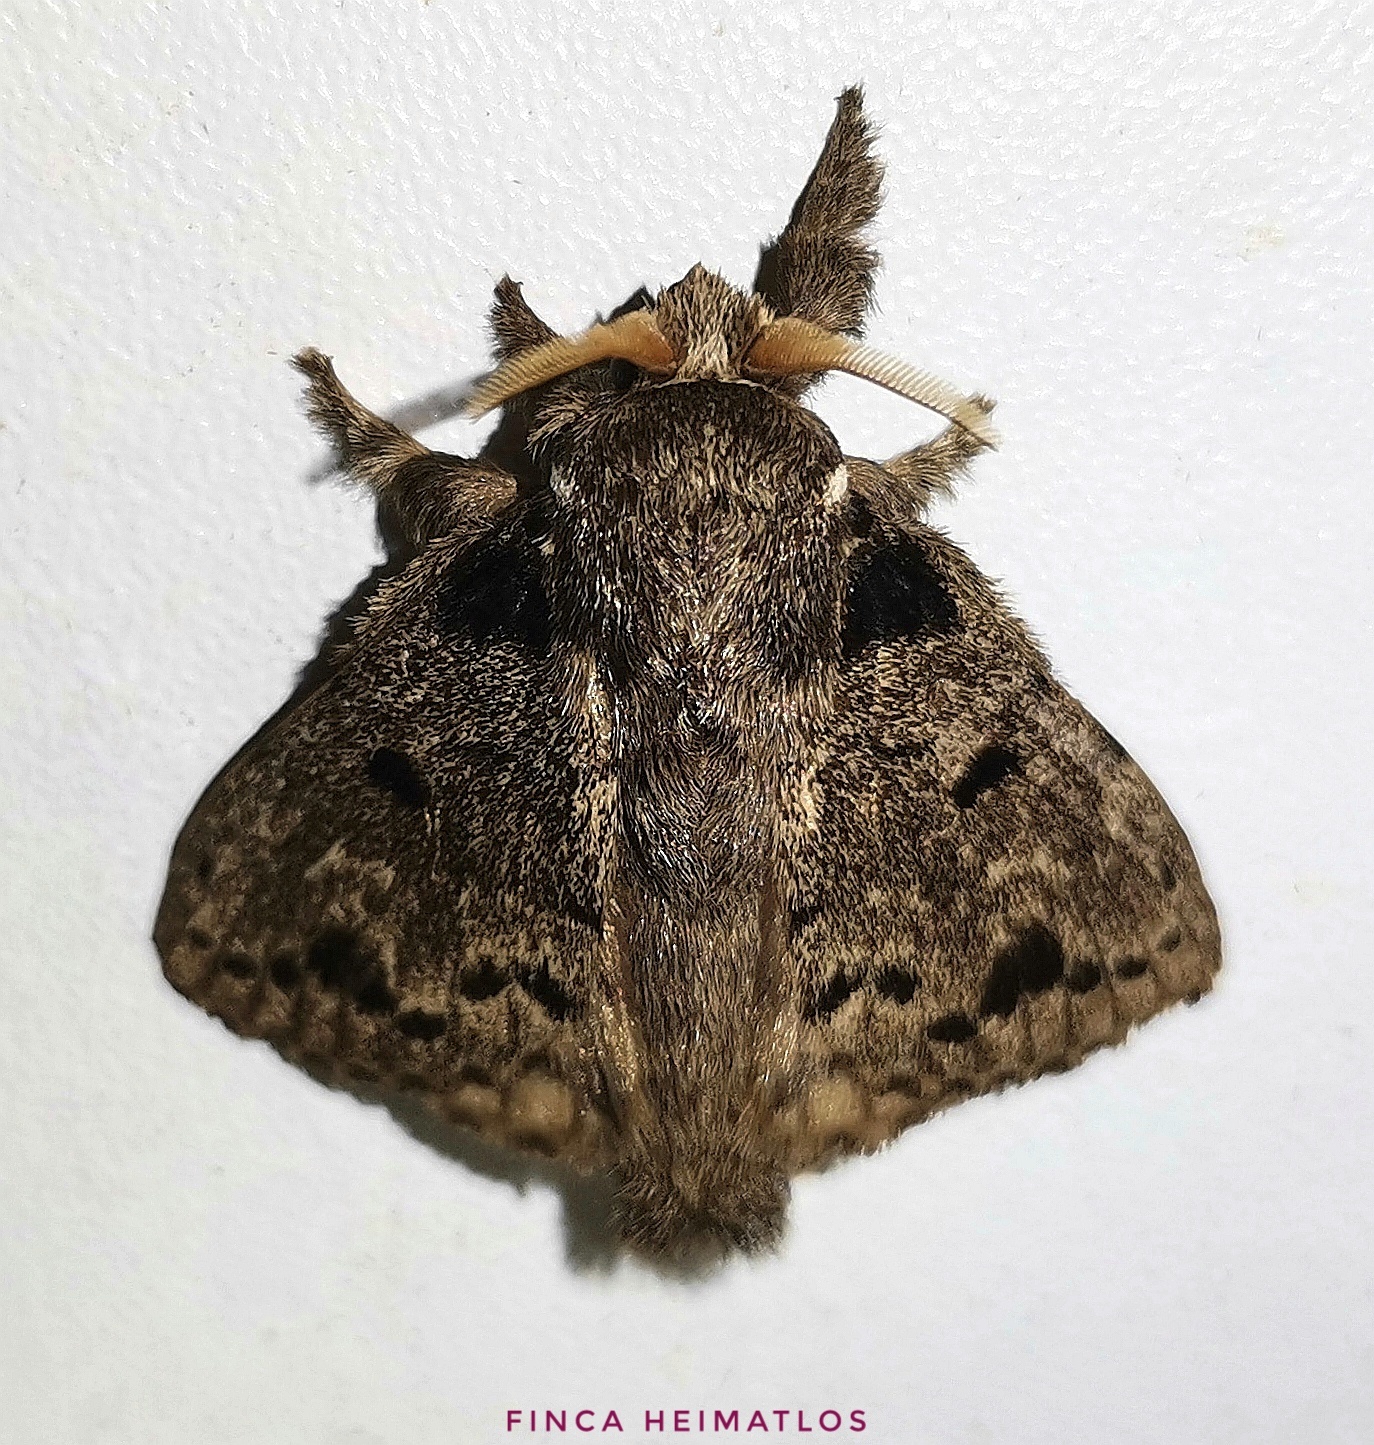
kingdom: Animalia
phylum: Arthropoda
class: Insecta
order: Lepidoptera
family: Lasiocampidae
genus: Euglyphis
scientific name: Euglyphis distincta
